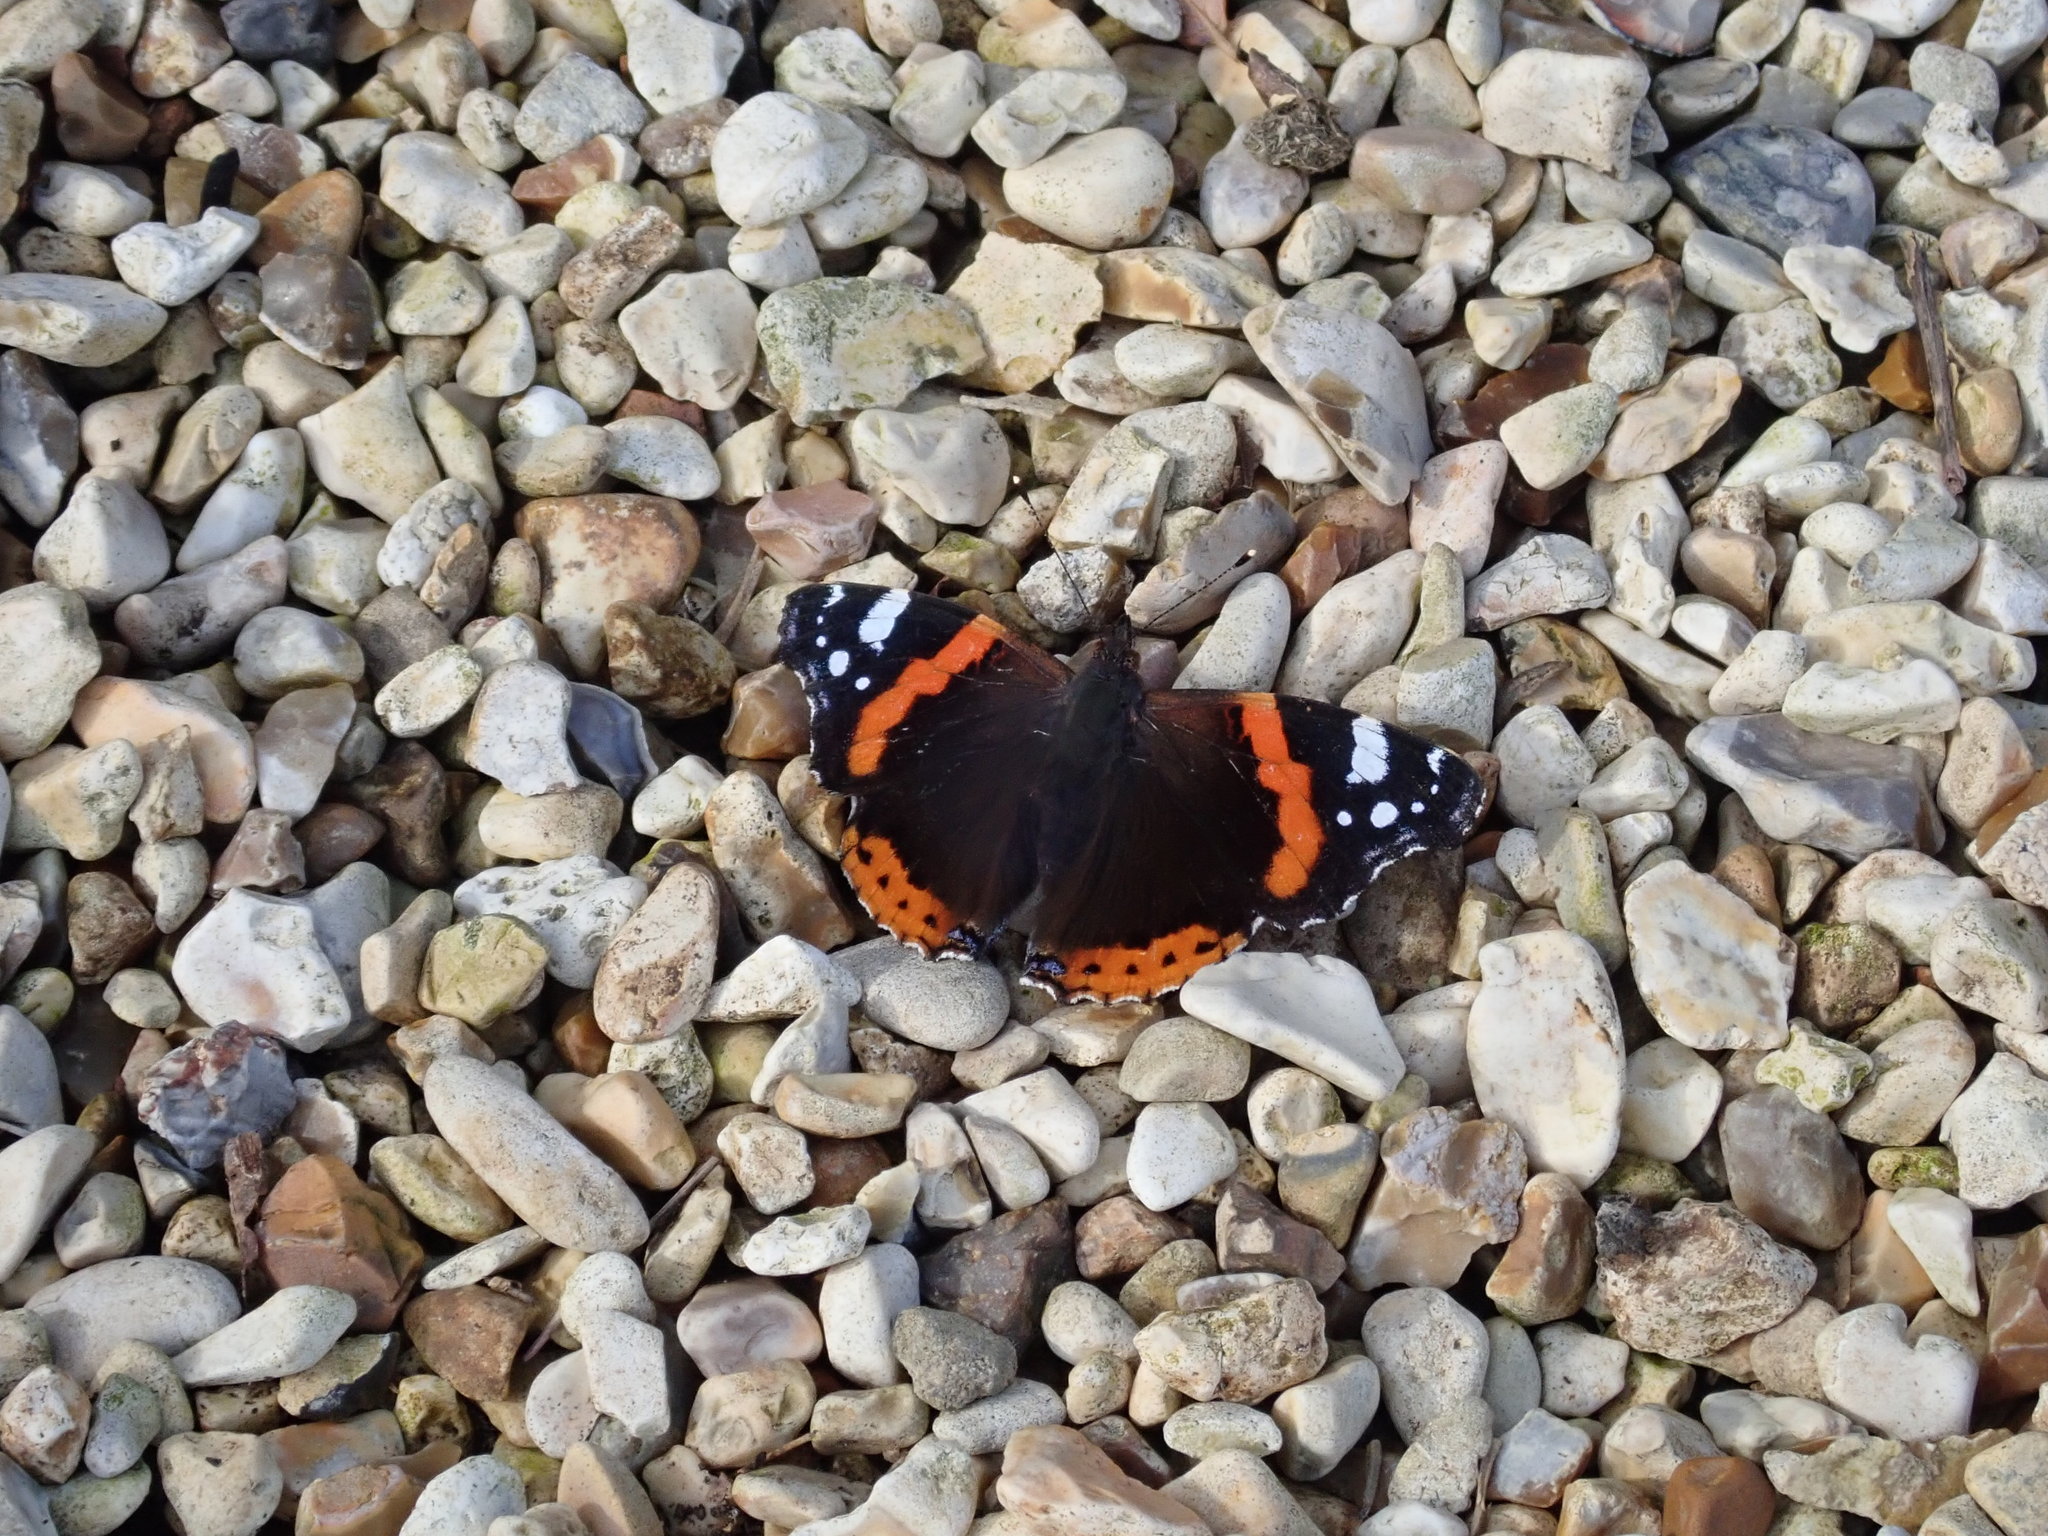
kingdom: Animalia
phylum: Arthropoda
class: Insecta
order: Lepidoptera
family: Nymphalidae
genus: Vanessa
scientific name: Vanessa atalanta
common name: Red admiral
